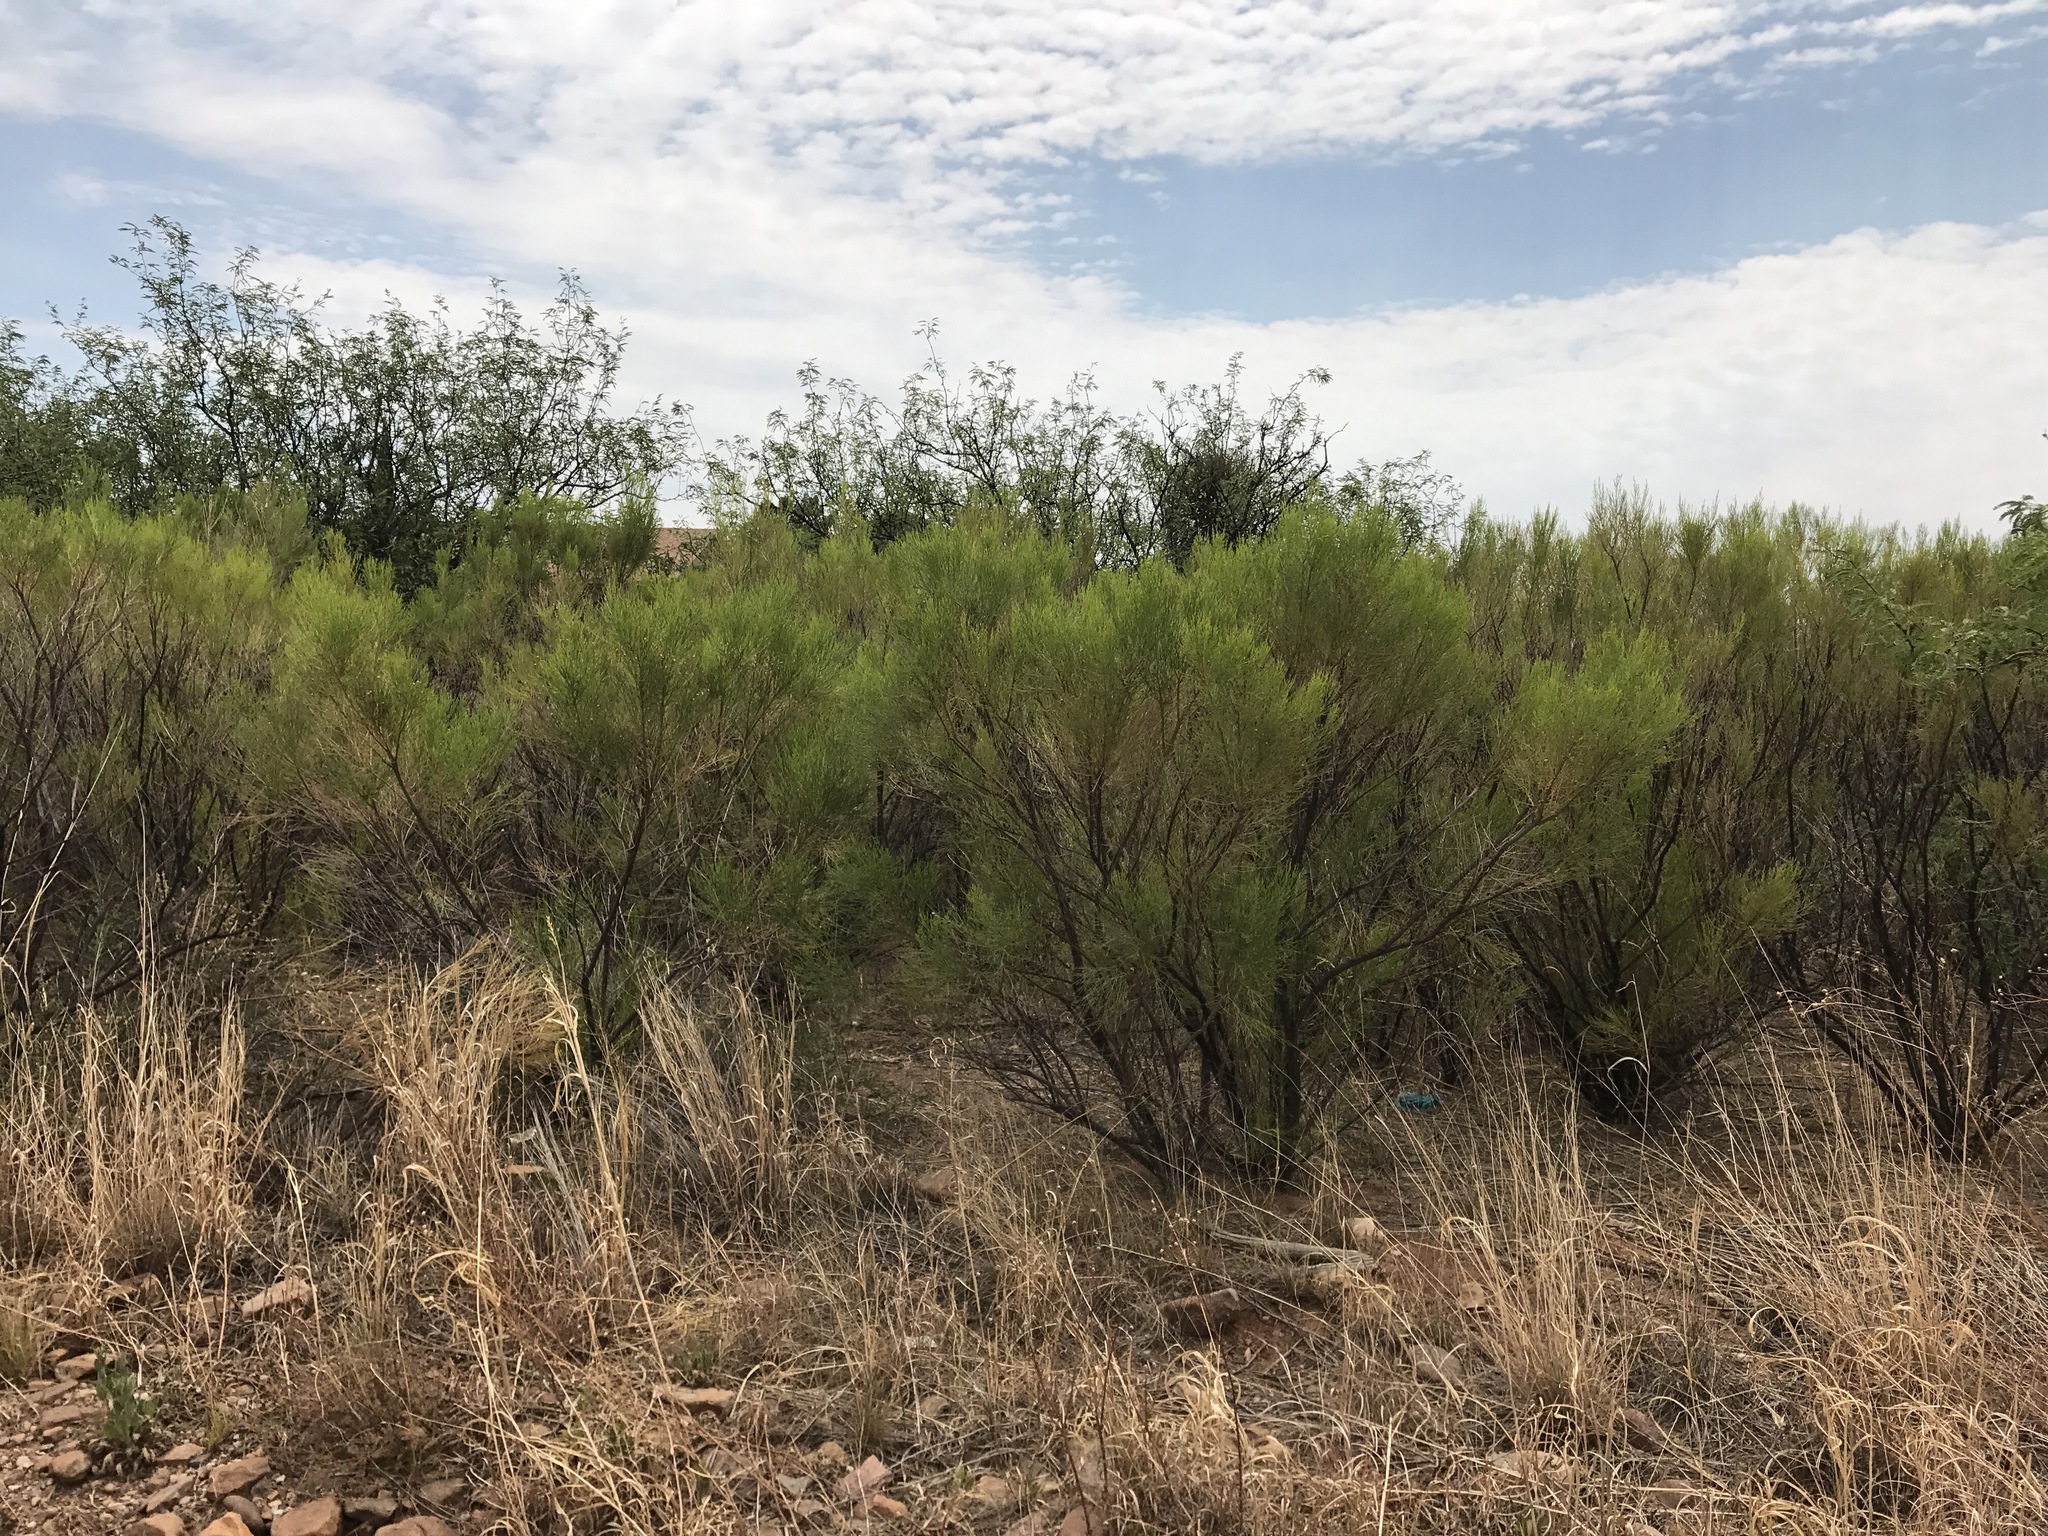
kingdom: Plantae
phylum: Tracheophyta
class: Magnoliopsida
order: Asterales
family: Asteraceae
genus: Baccharis
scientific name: Baccharis sarothroides
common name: Desert-broom
